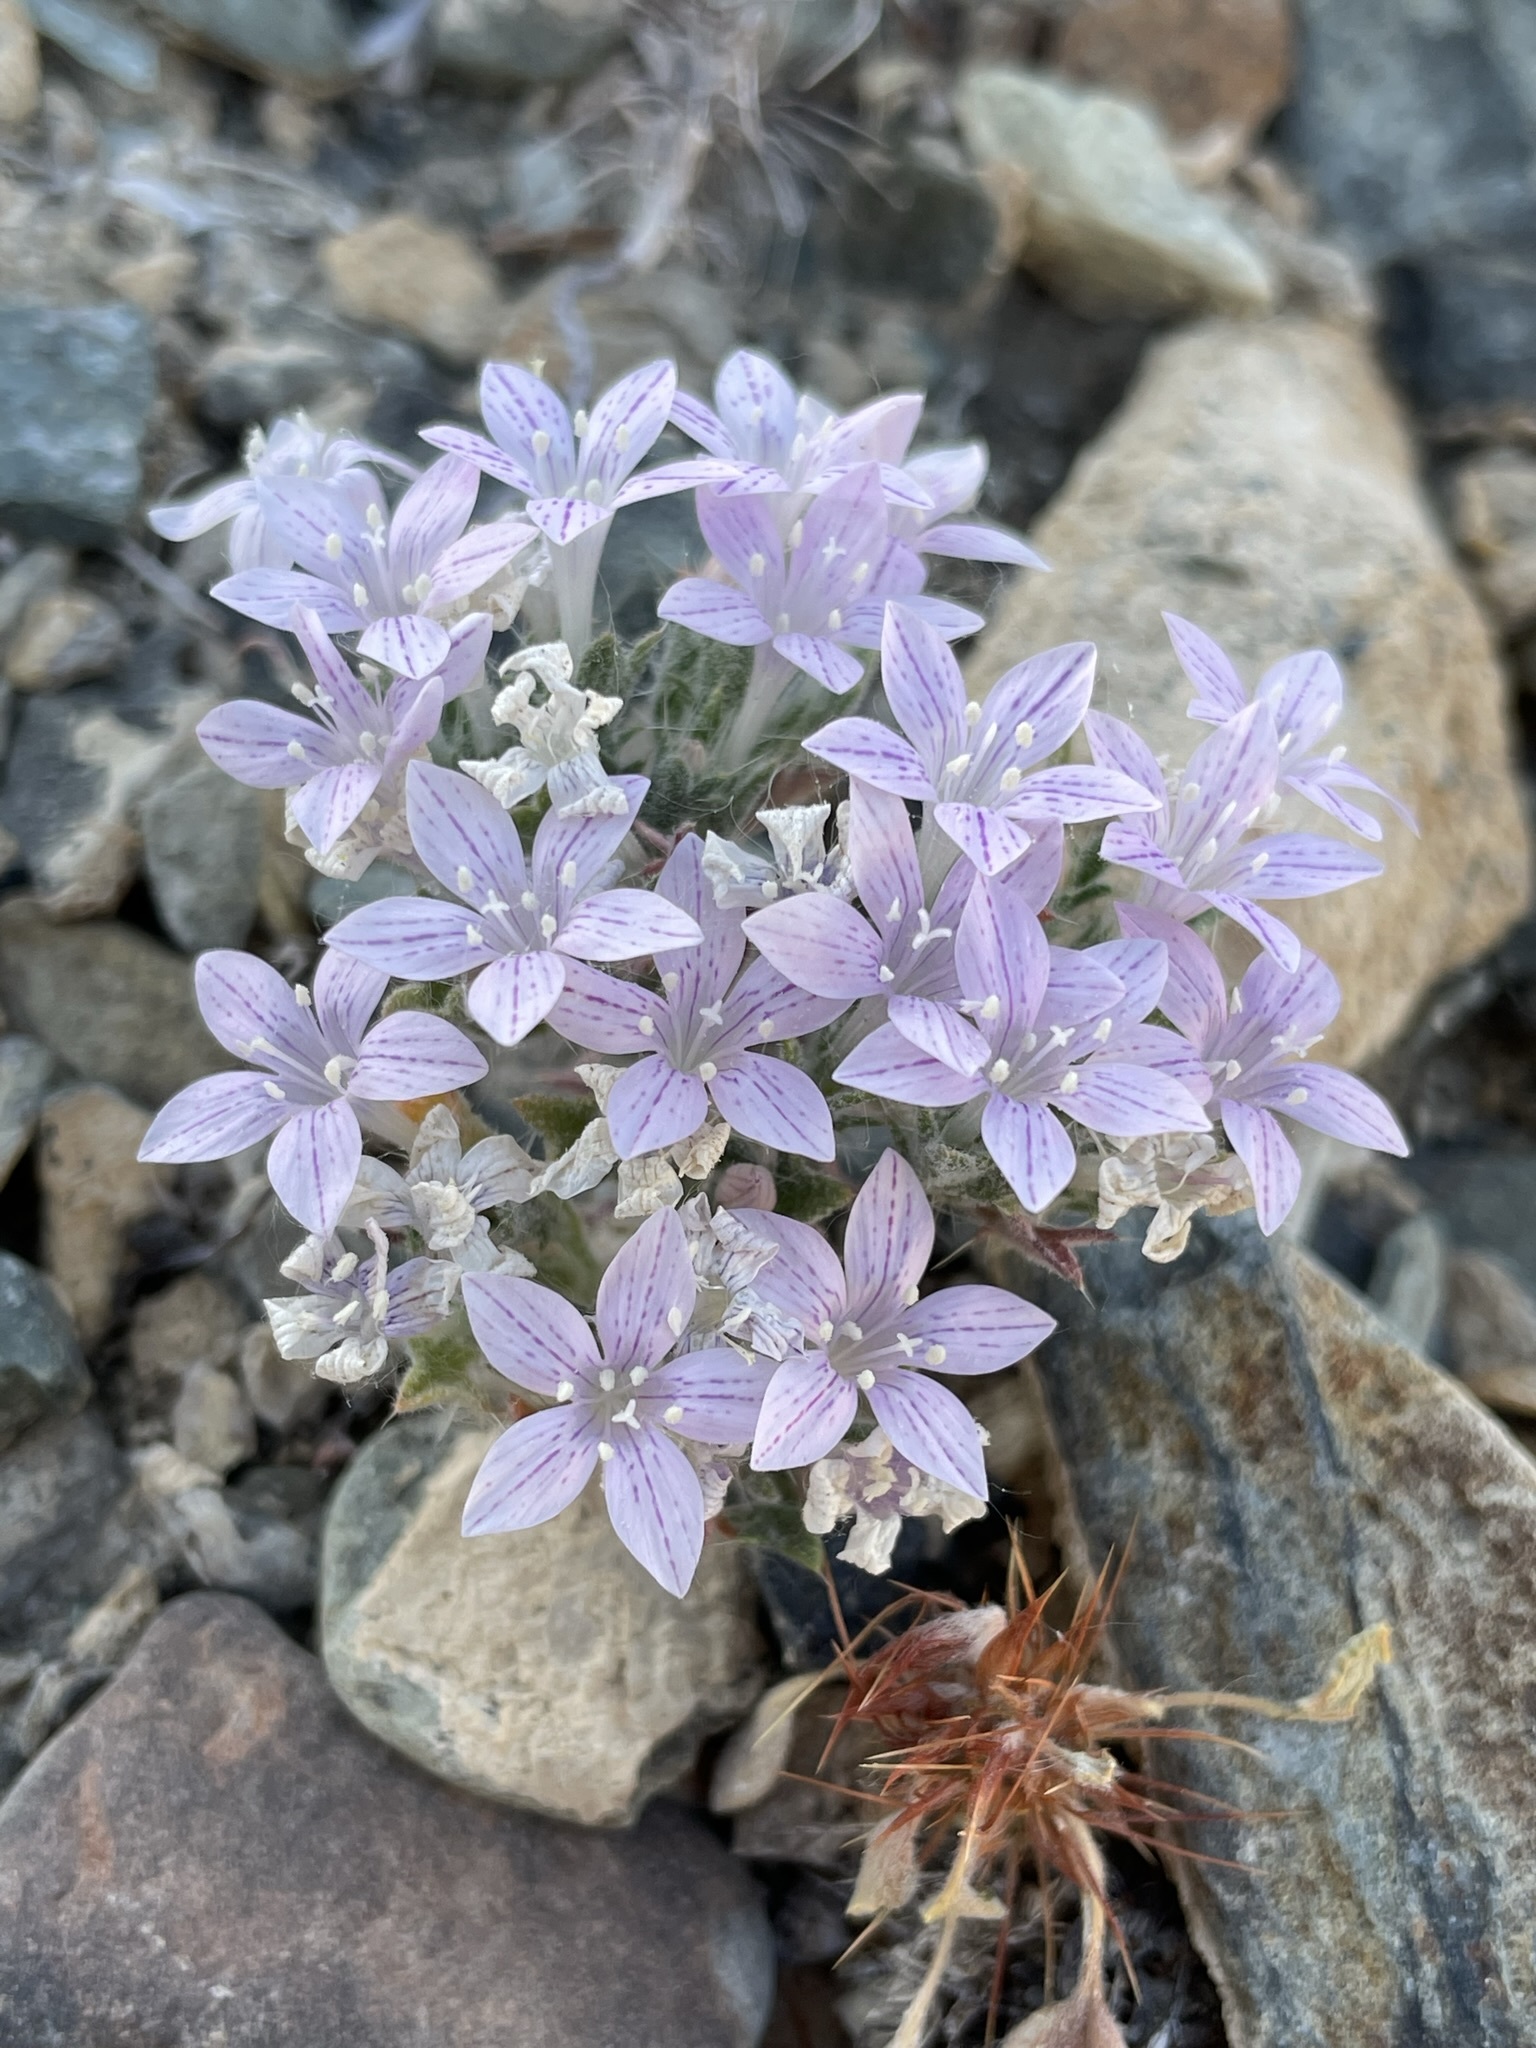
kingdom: Plantae
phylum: Tracheophyta
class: Magnoliopsida
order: Ericales
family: Polemoniaceae
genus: Langloisia
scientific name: Langloisia setosissima
